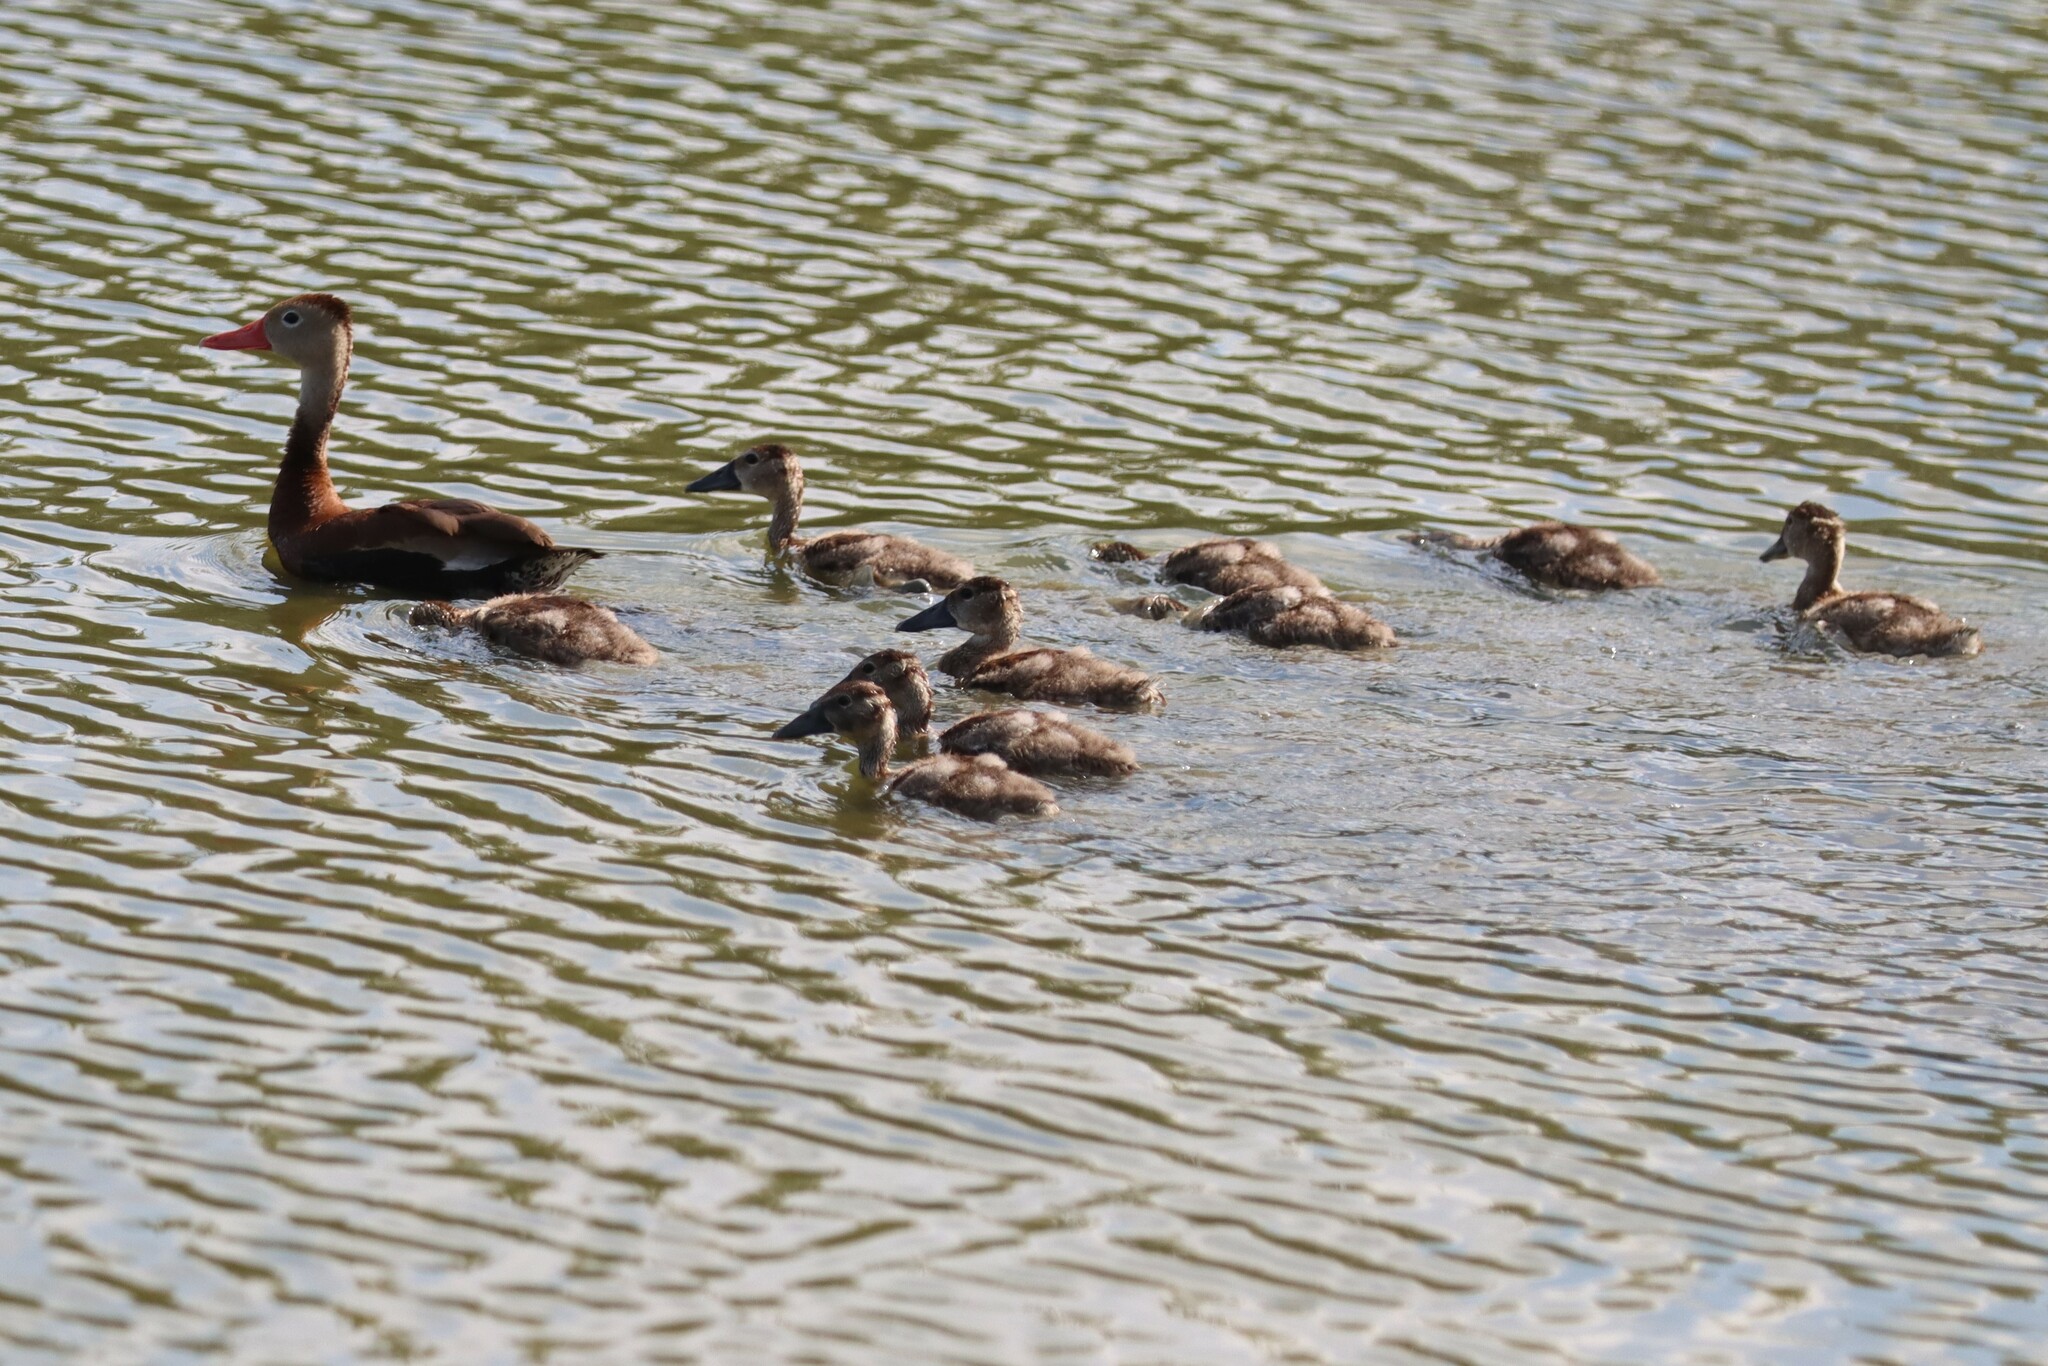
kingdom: Animalia
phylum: Chordata
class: Aves
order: Anseriformes
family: Anatidae
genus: Dendrocygna
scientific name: Dendrocygna autumnalis
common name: Black-bellied whistling duck
